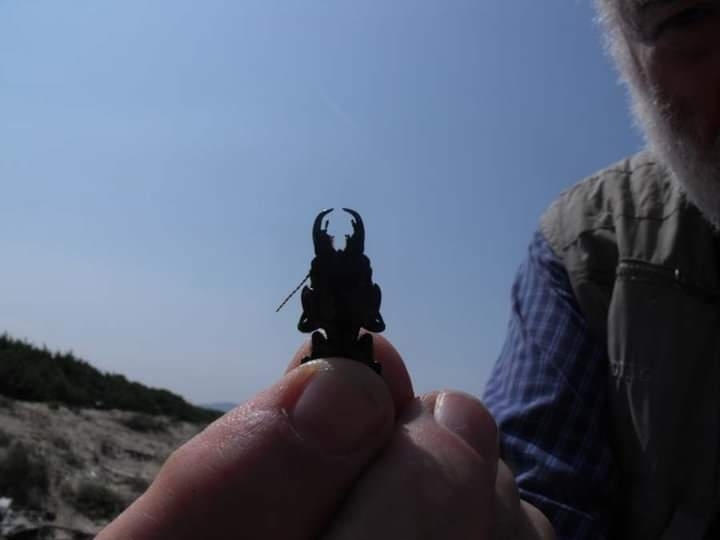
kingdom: Animalia
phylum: Arthropoda
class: Insecta
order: Coleoptera
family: Carabidae
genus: Scarites
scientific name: Scarites buparius
